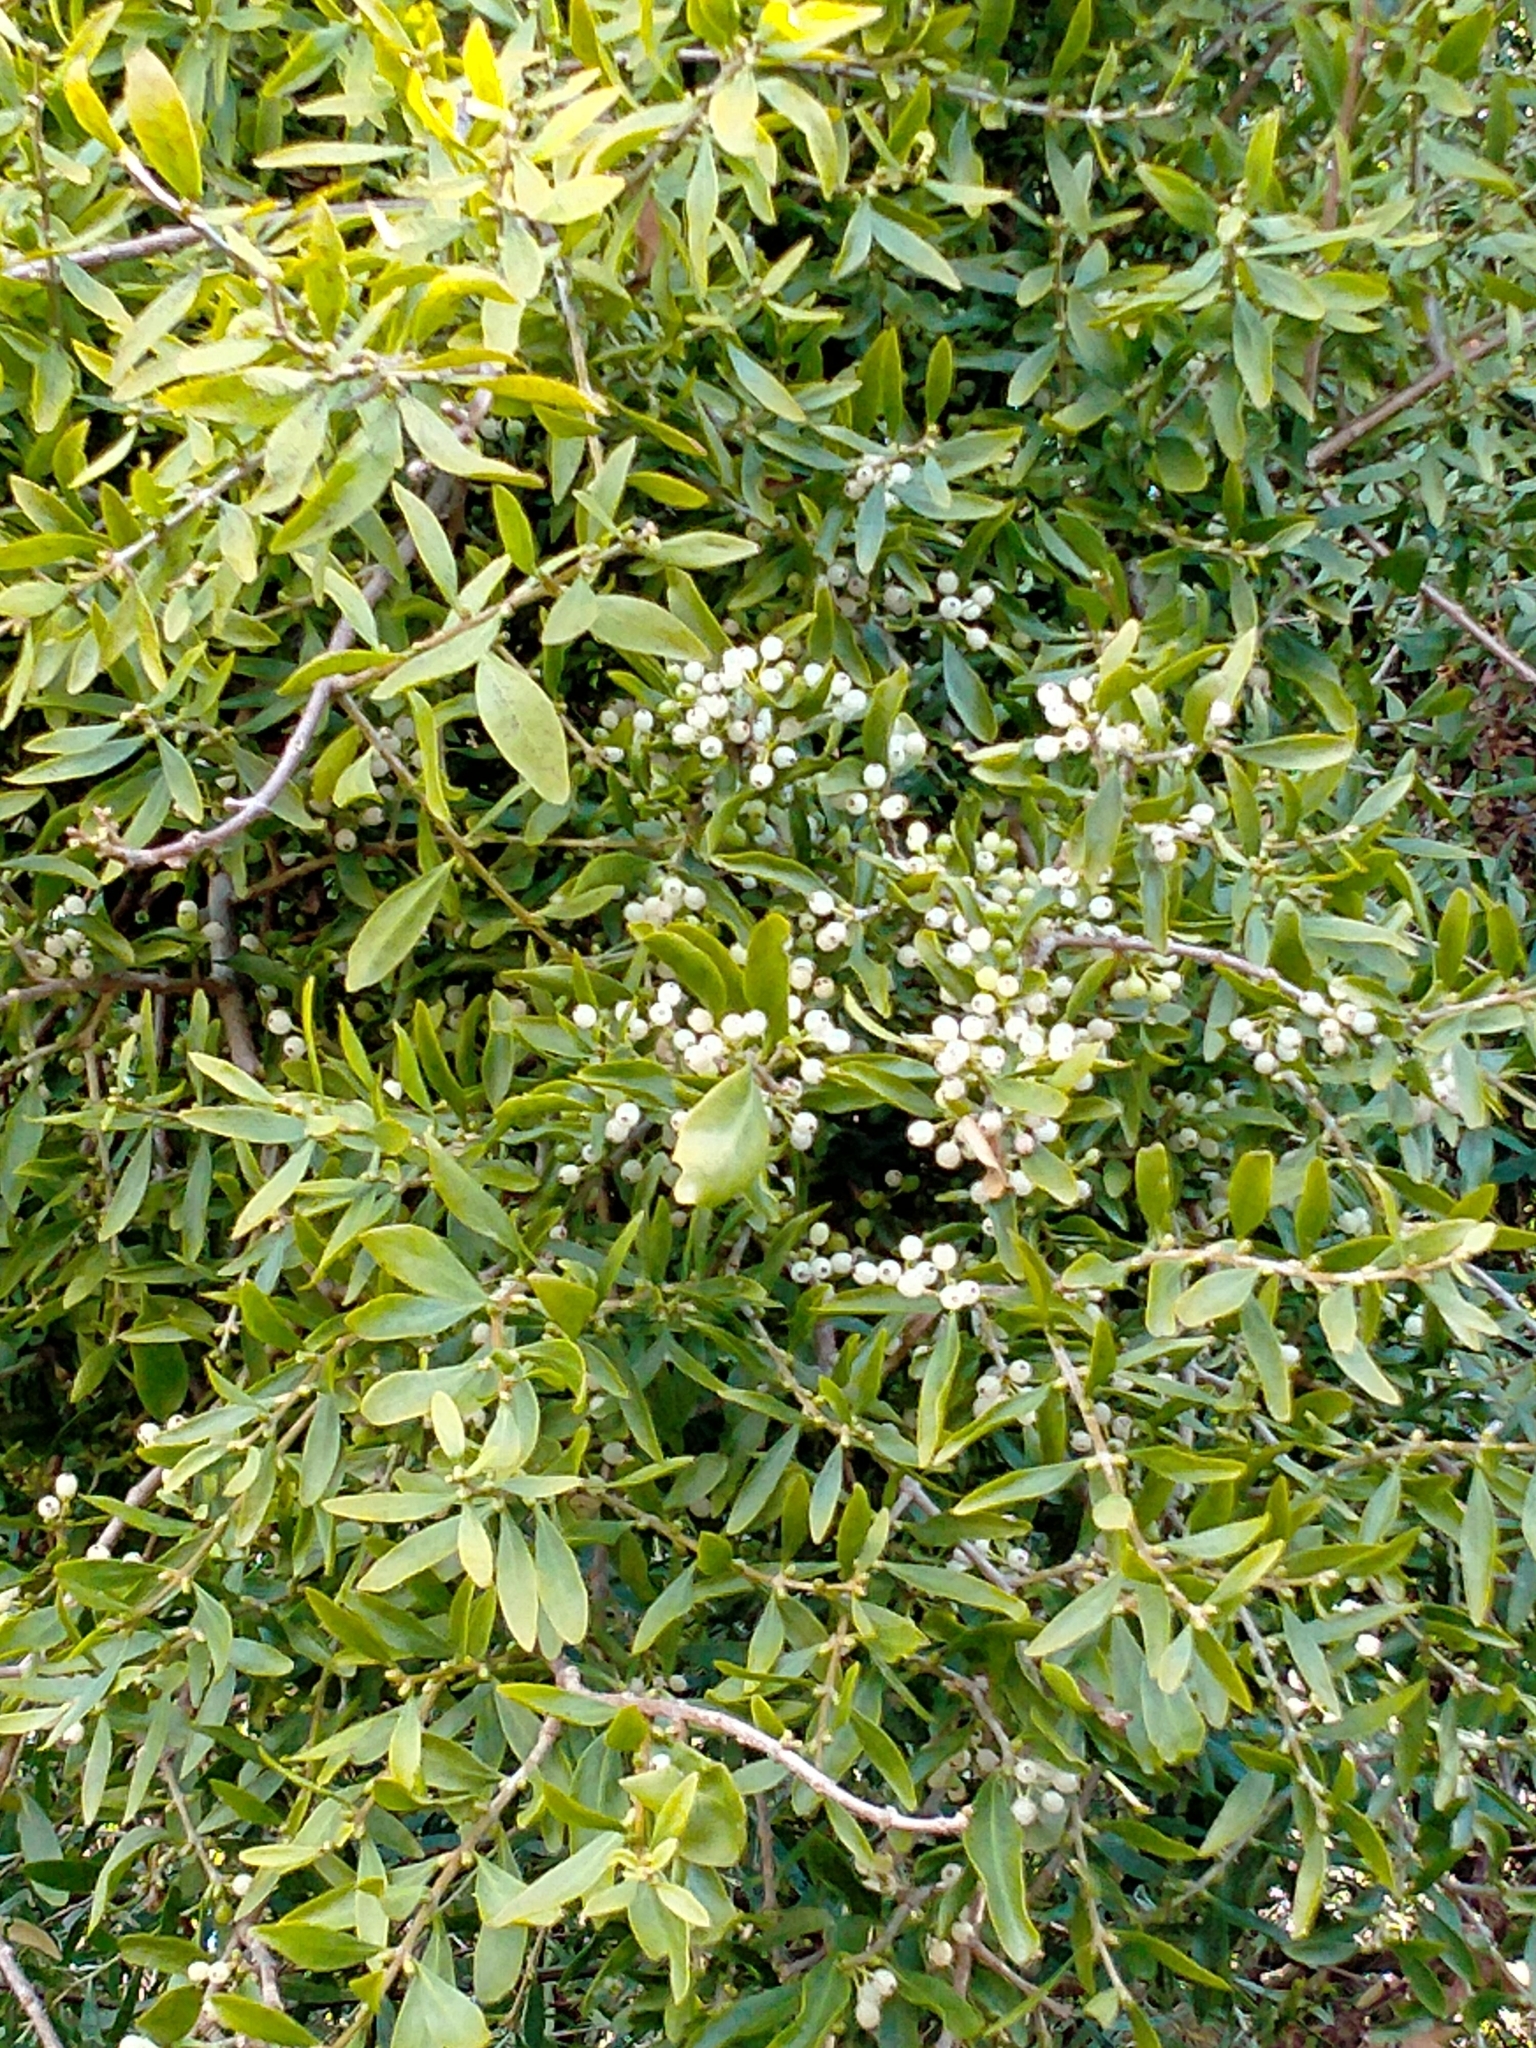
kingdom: Plantae
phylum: Tracheophyta
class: Magnoliopsida
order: Santalales
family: Loranthaceae
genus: Tupeia
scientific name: Tupeia antarctica
